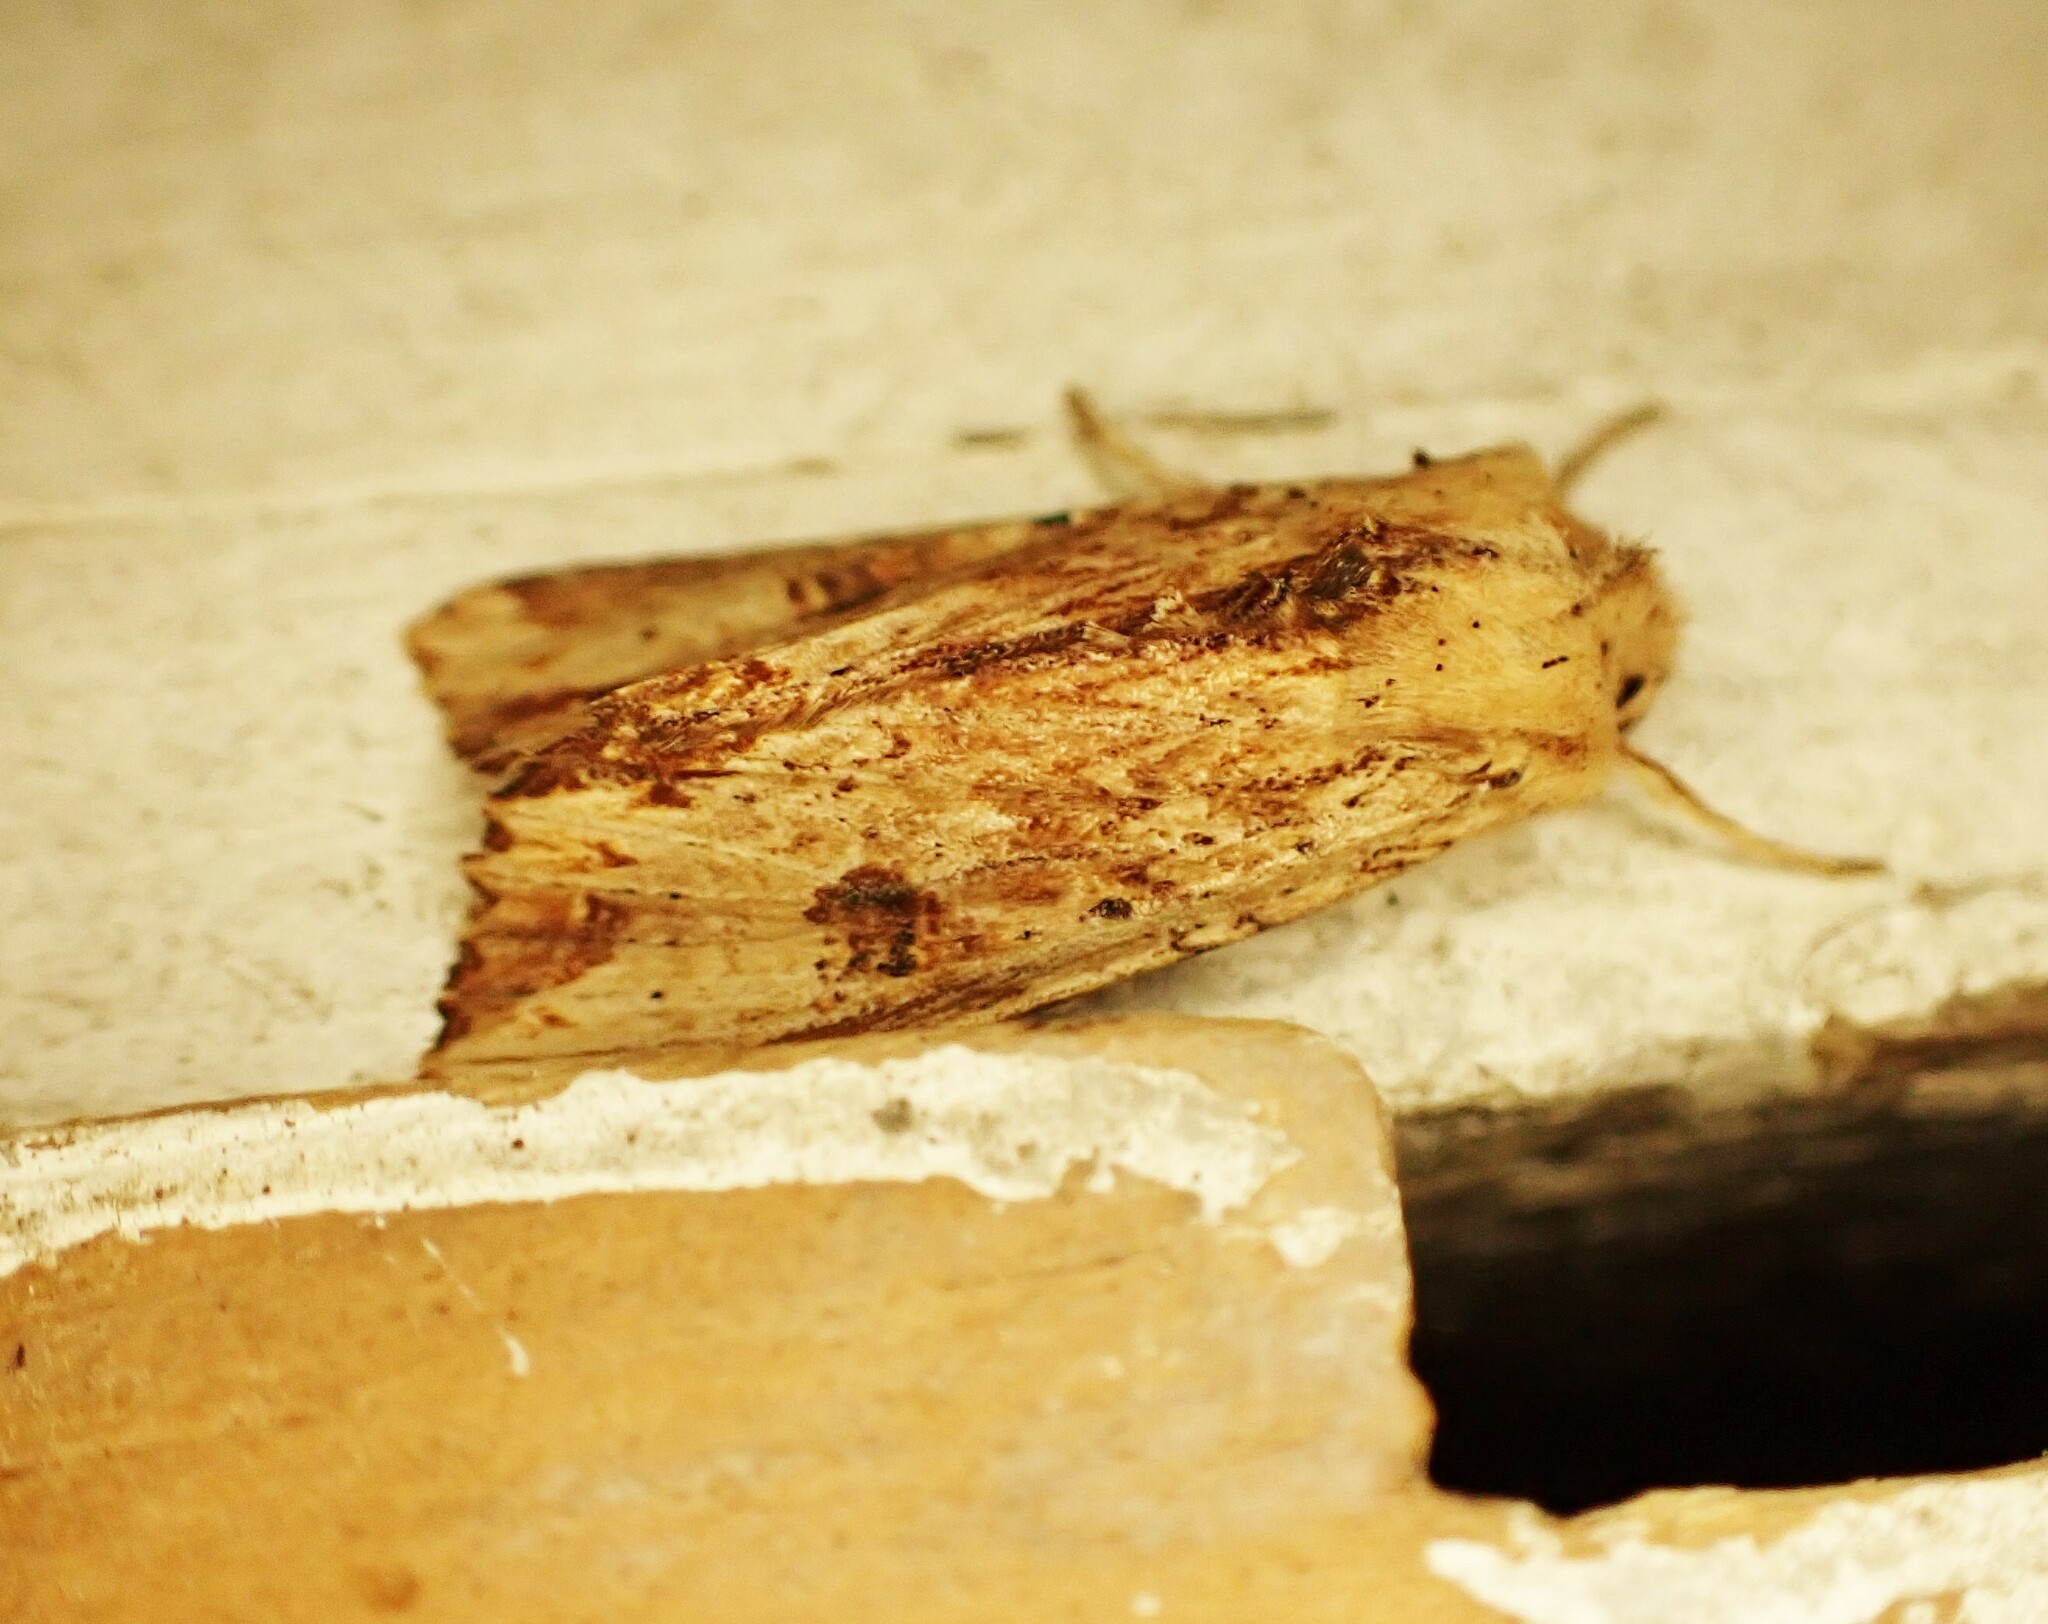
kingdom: Animalia
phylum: Arthropoda
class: Insecta
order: Lepidoptera
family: Noctuidae
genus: Ichneutica
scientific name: Ichneutica
